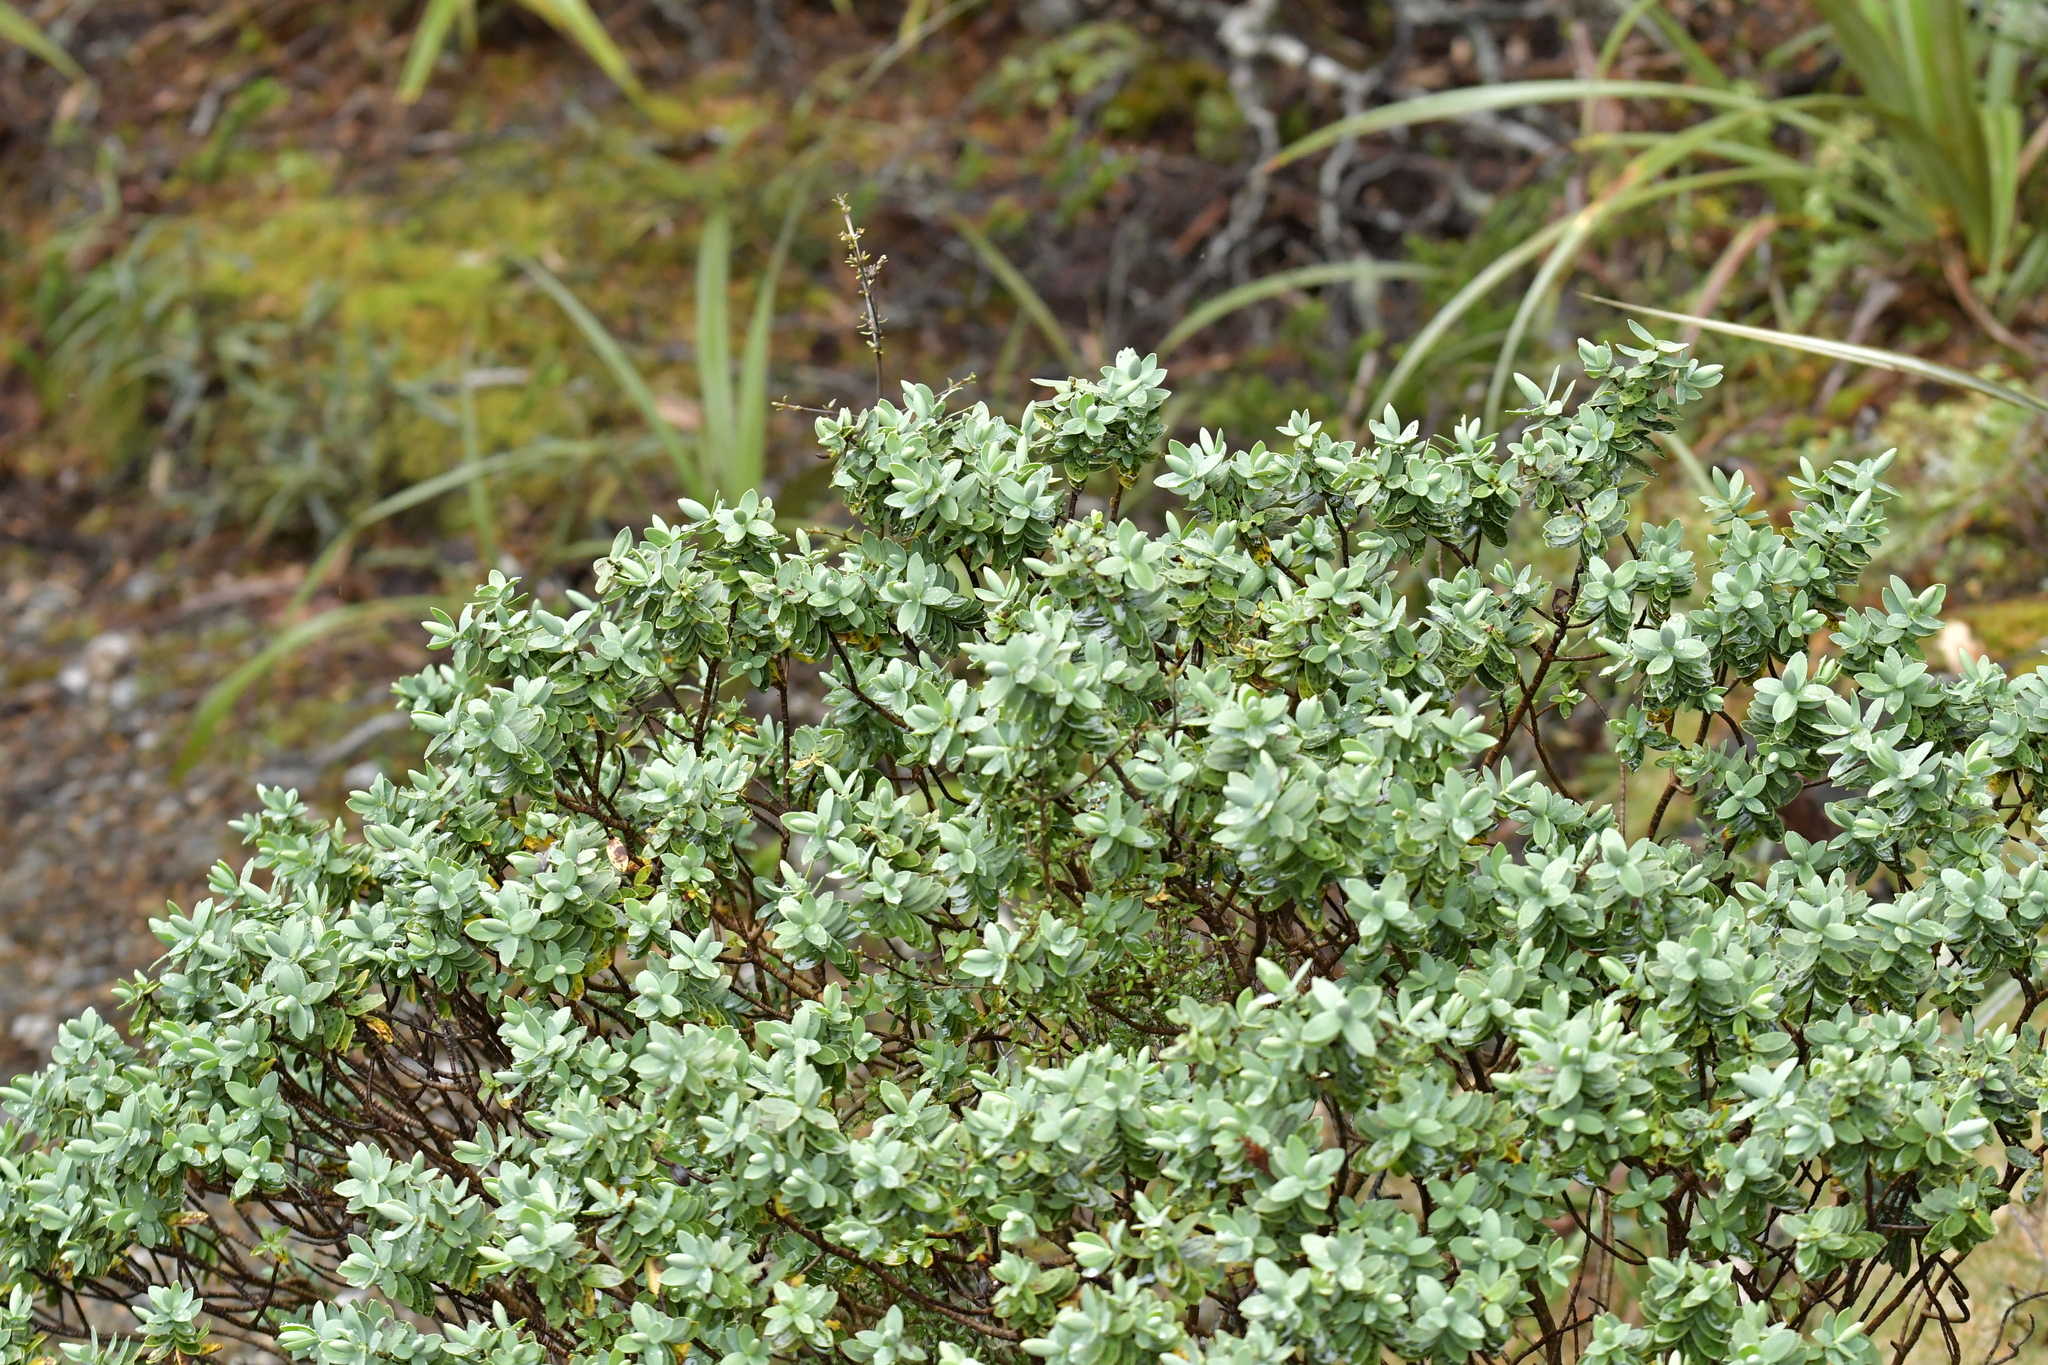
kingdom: Plantae
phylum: Tracheophyta
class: Magnoliopsida
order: Lamiales
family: Plantaginaceae
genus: Veronica
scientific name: Veronica topiaria
